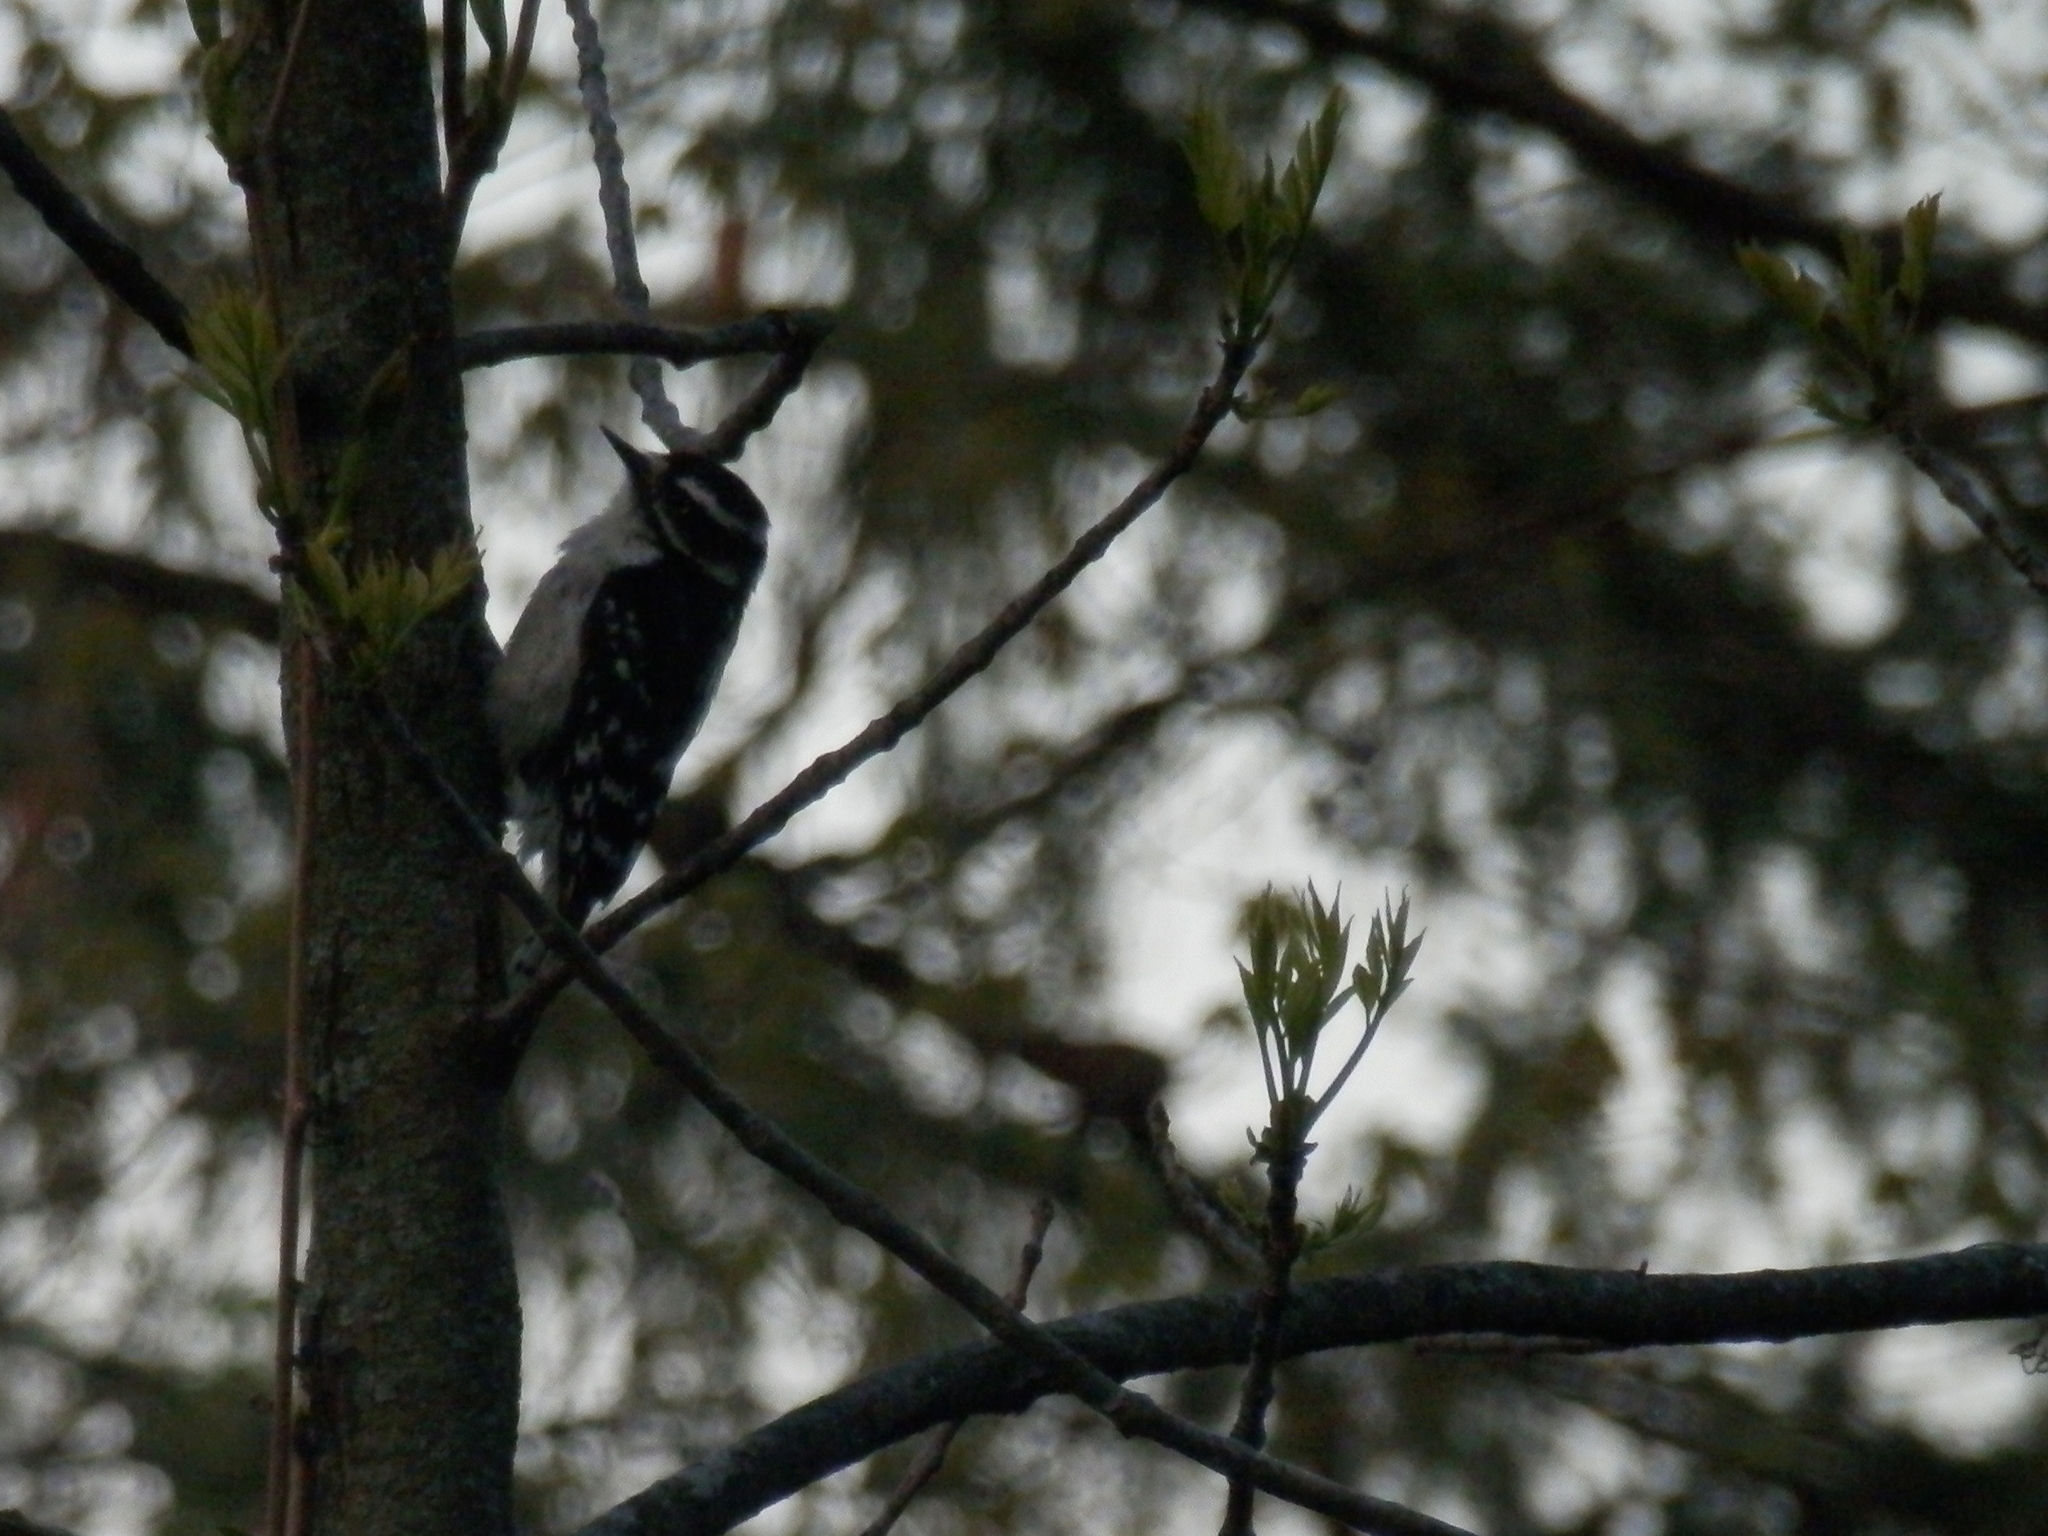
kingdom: Animalia
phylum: Chordata
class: Aves
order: Piciformes
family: Picidae
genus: Dryobates
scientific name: Dryobates pubescens
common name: Downy woodpecker
